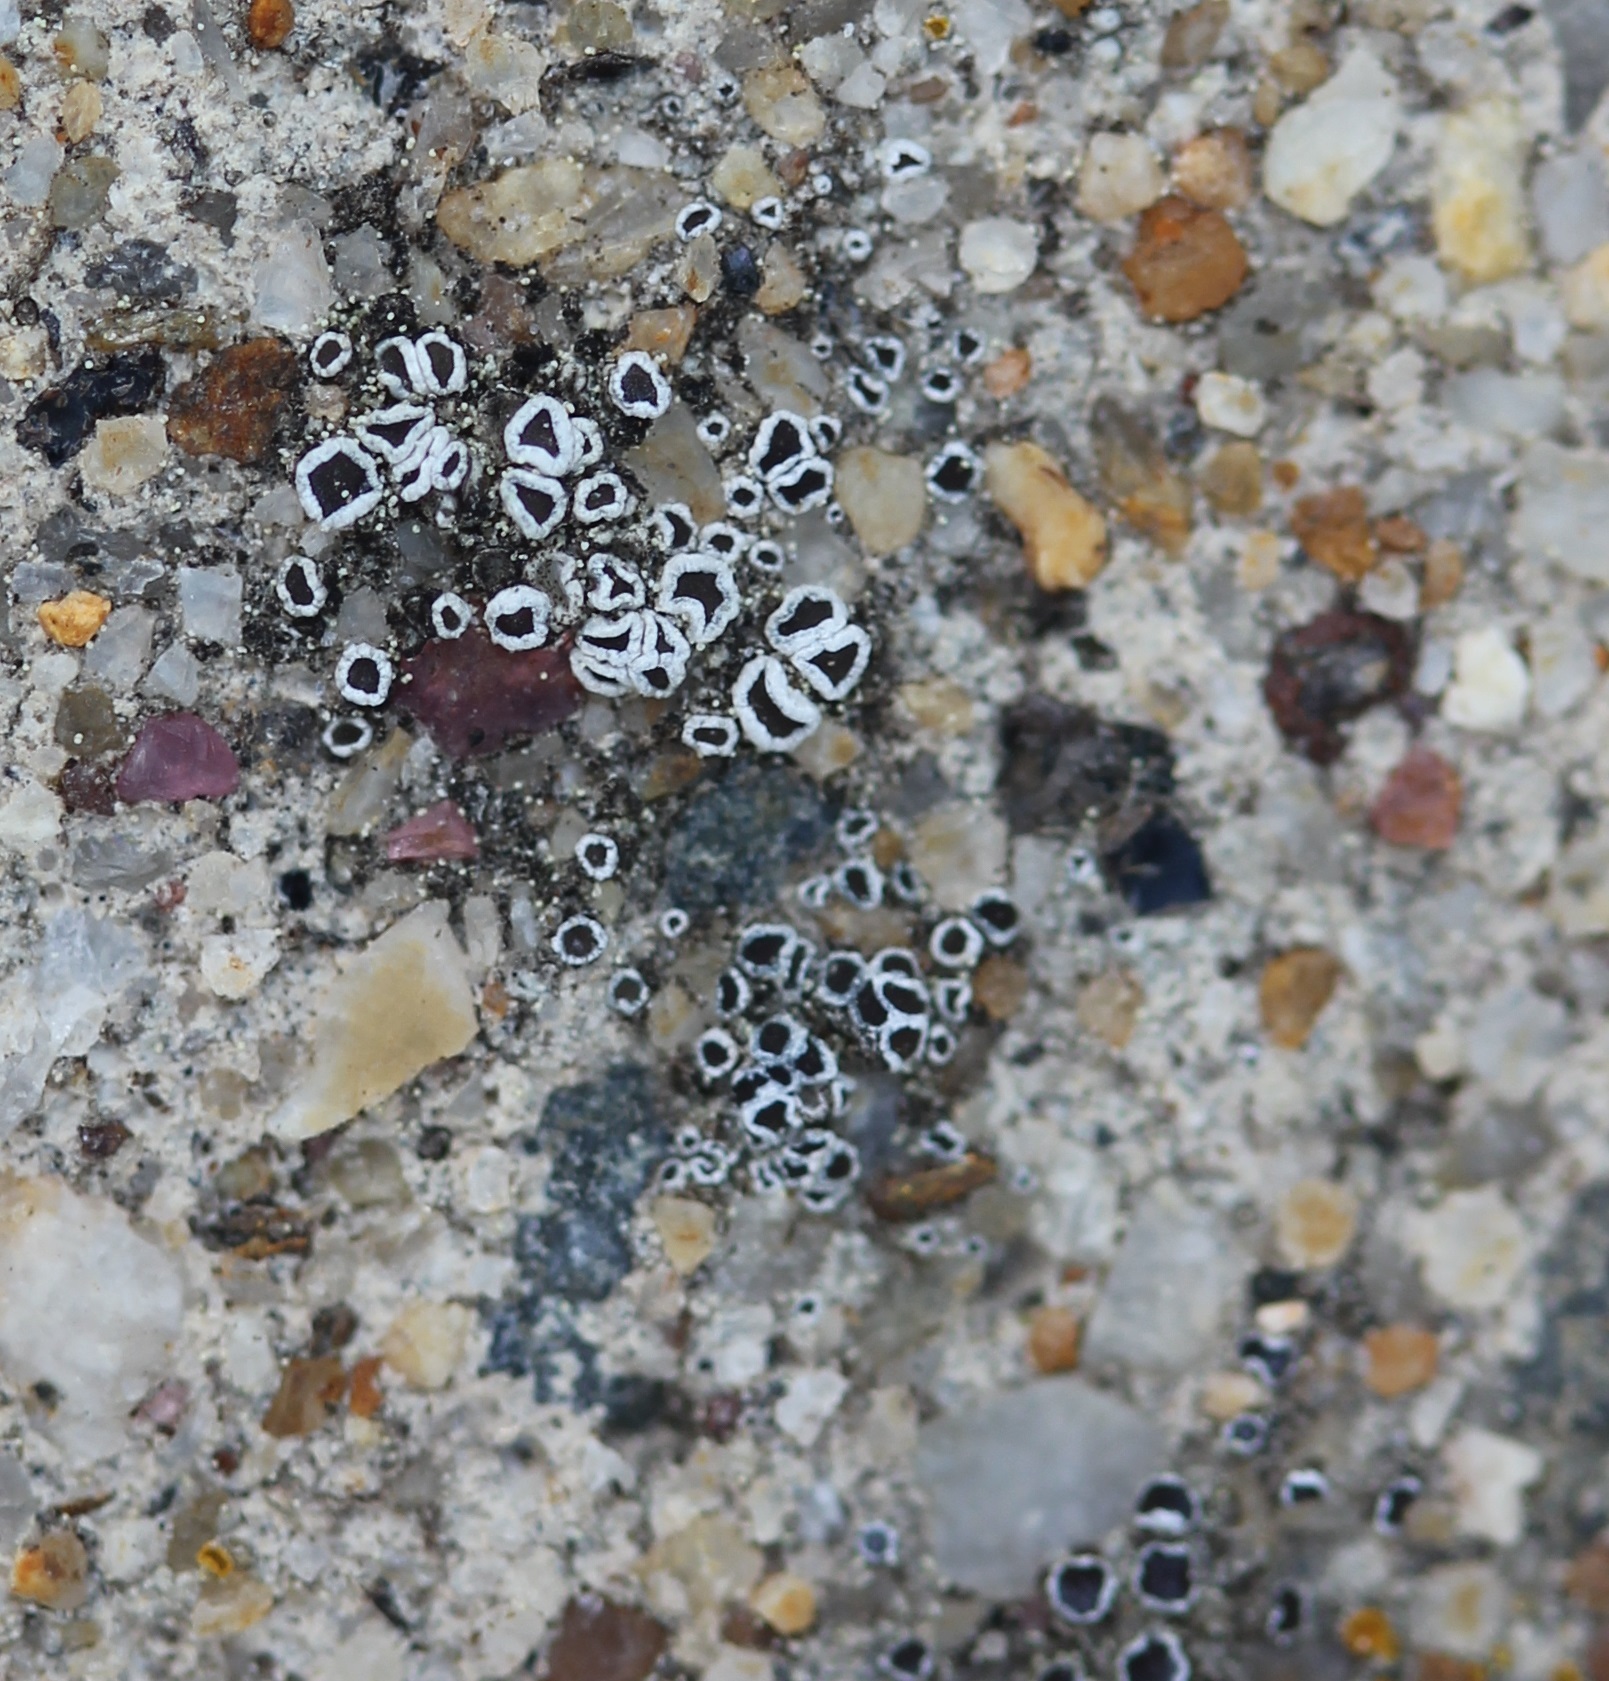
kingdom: Fungi
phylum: Ascomycota
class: Lecanoromycetes
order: Lecanorales
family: Lecanoraceae
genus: Polyozosia
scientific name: Polyozosia dispersa
